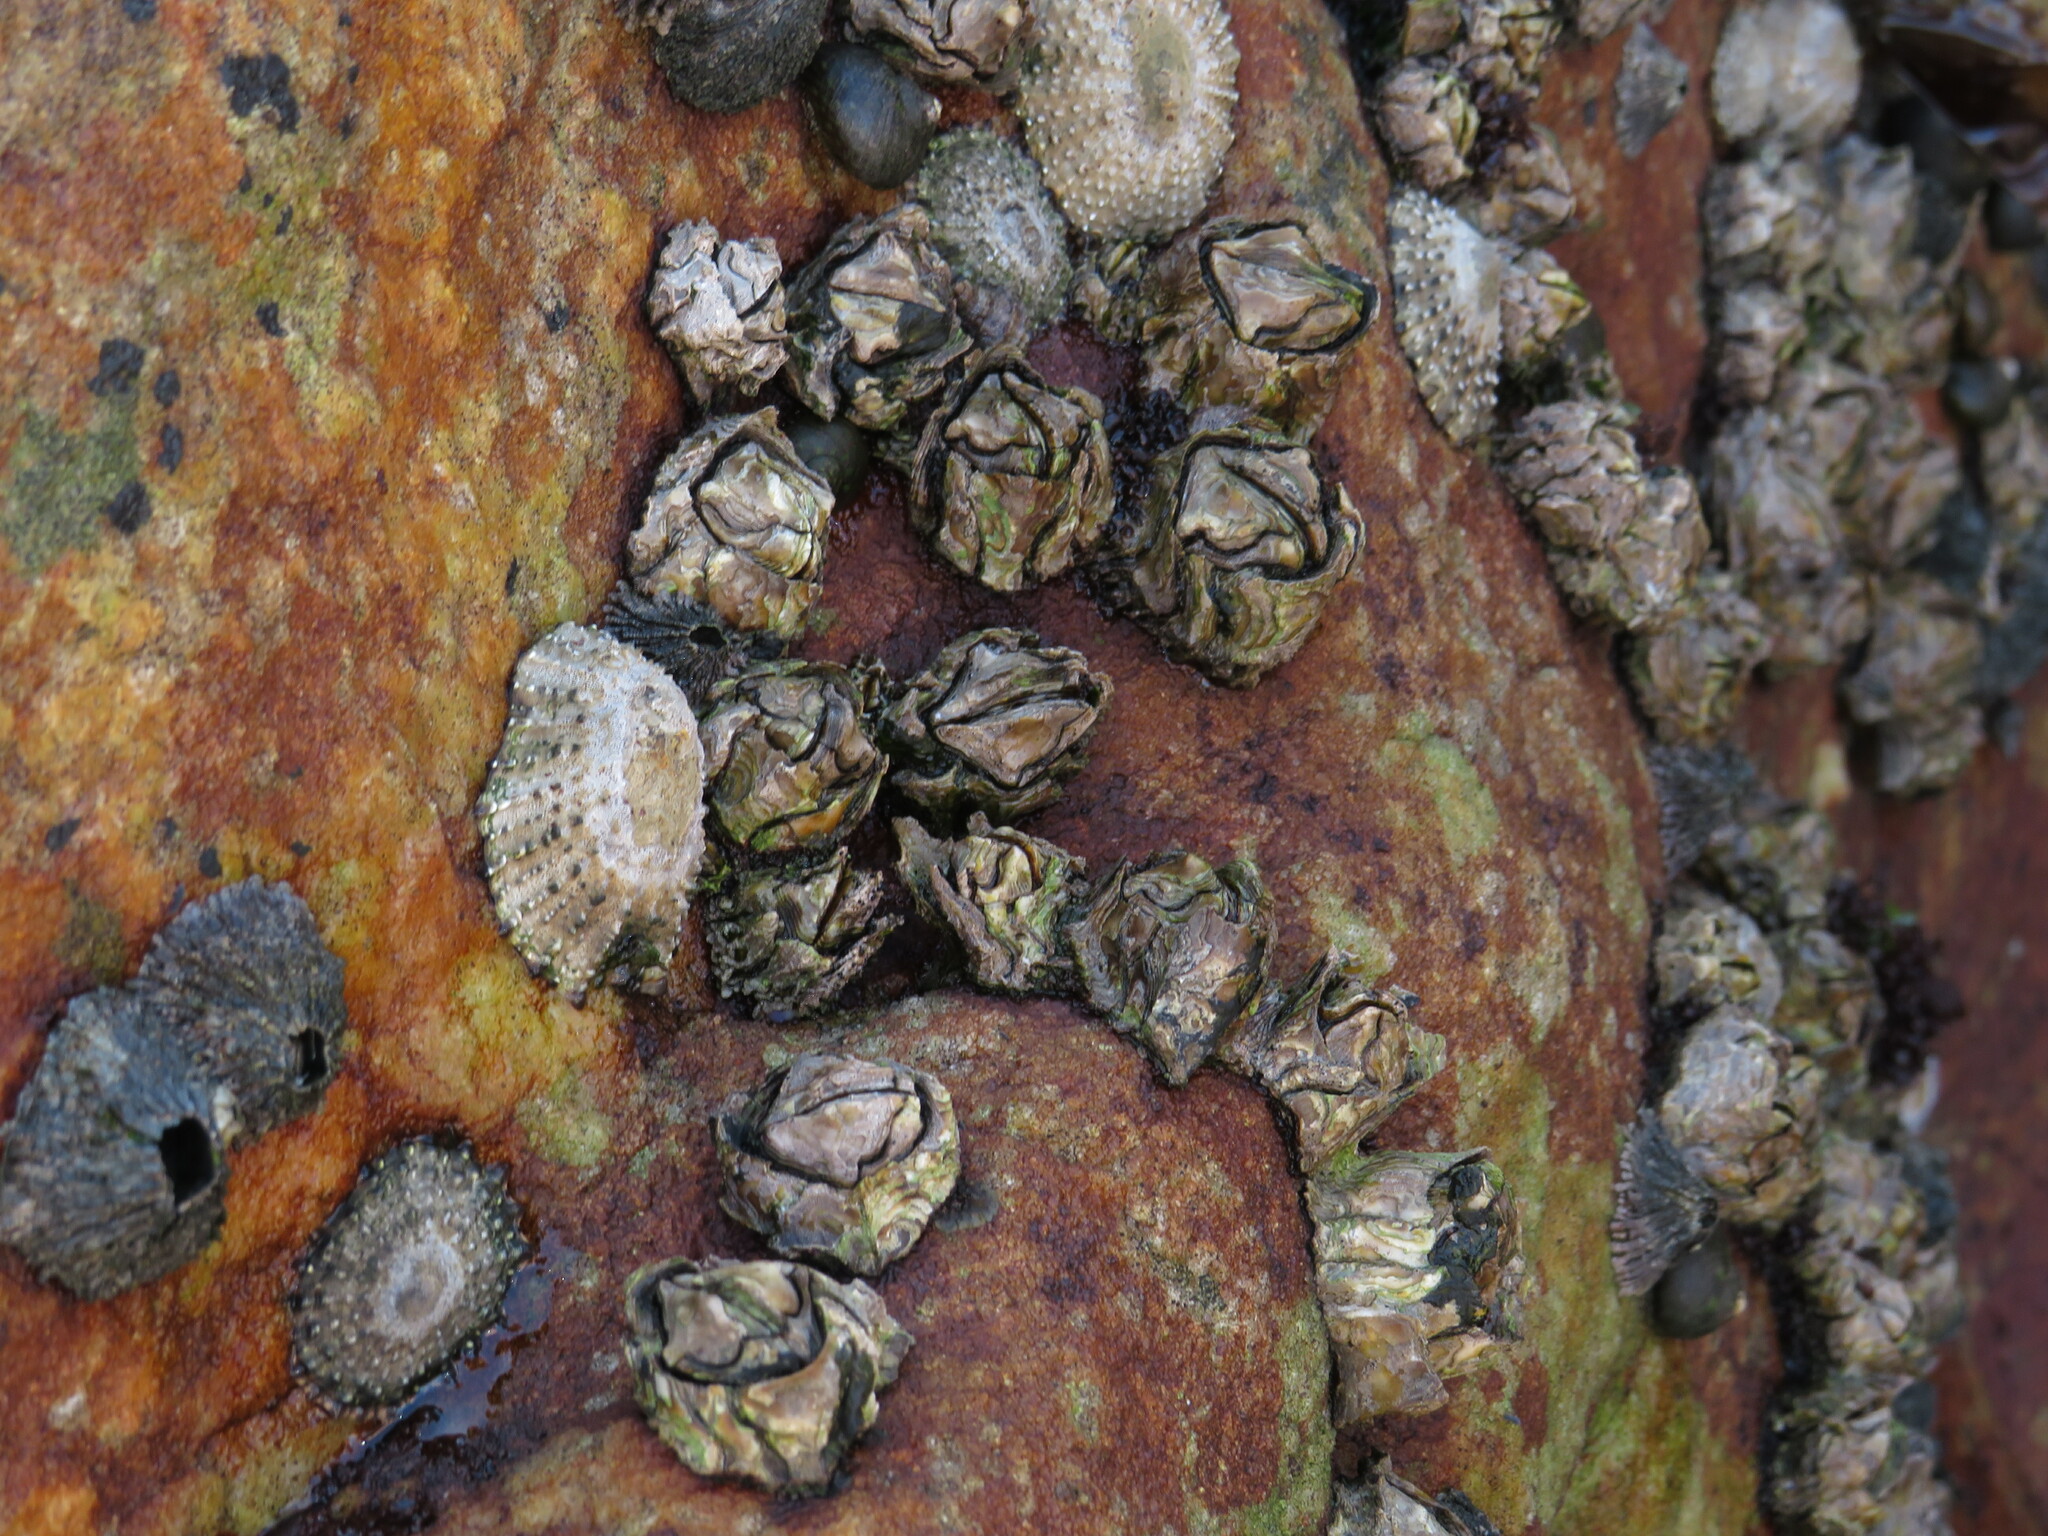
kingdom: Animalia
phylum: Arthropoda
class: Maxillopoda
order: Sessilia
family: Chthamalidae
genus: Octomeris
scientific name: Octomeris angulosa
